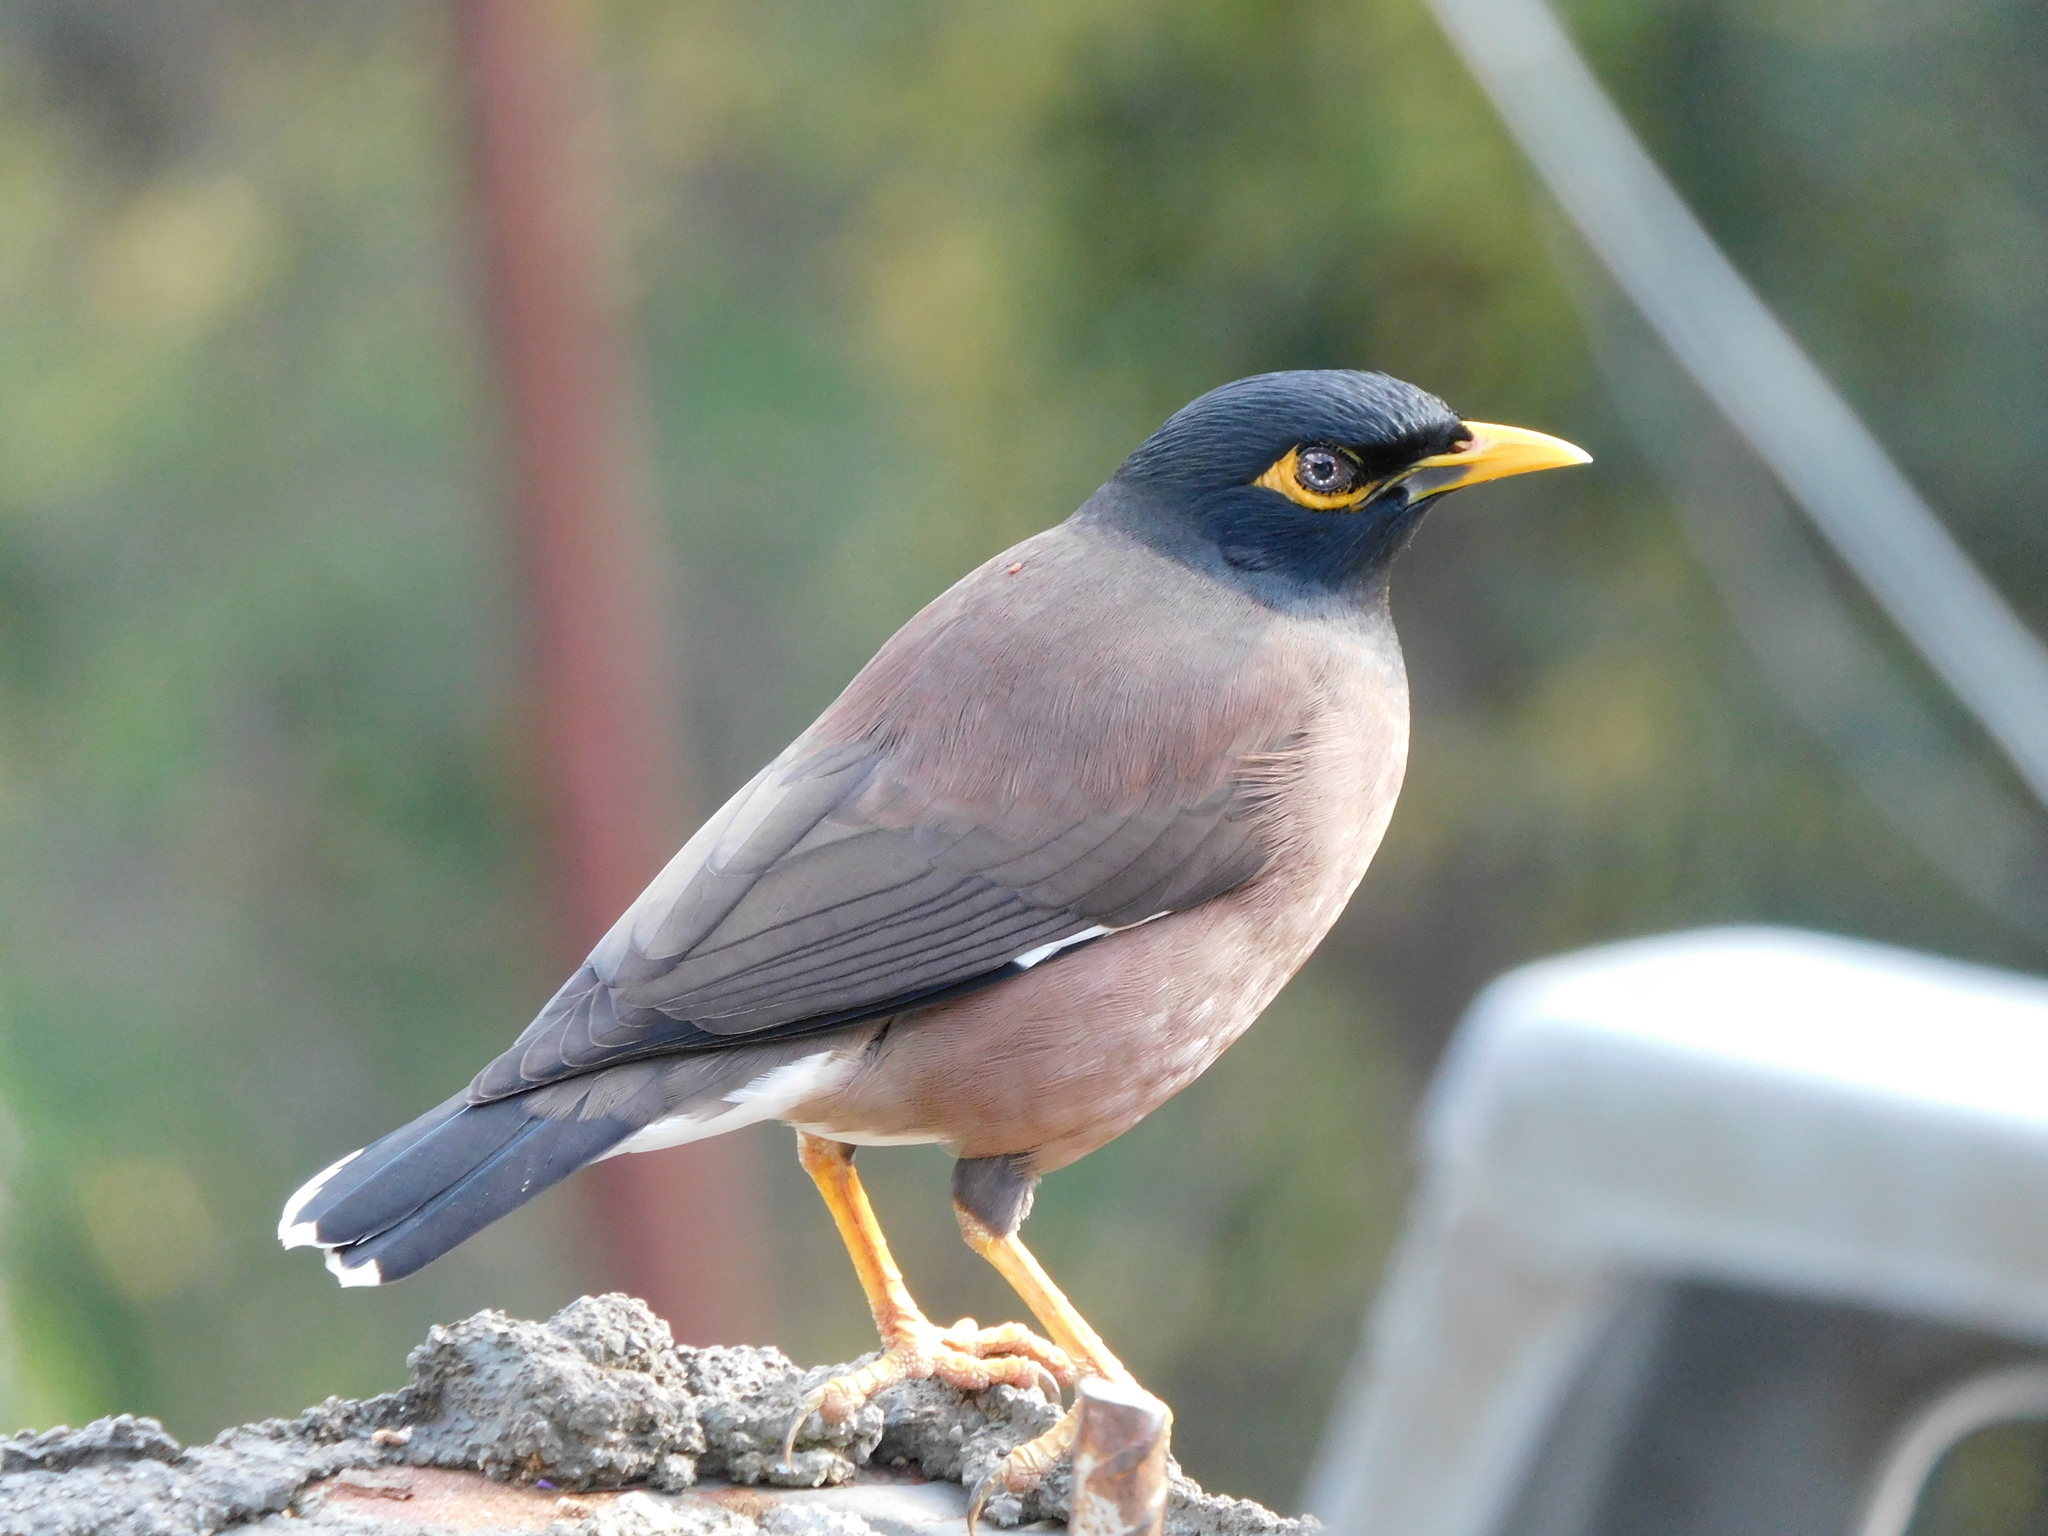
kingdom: Animalia
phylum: Chordata
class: Aves
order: Passeriformes
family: Sturnidae
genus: Acridotheres
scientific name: Acridotheres tristis
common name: Common myna
